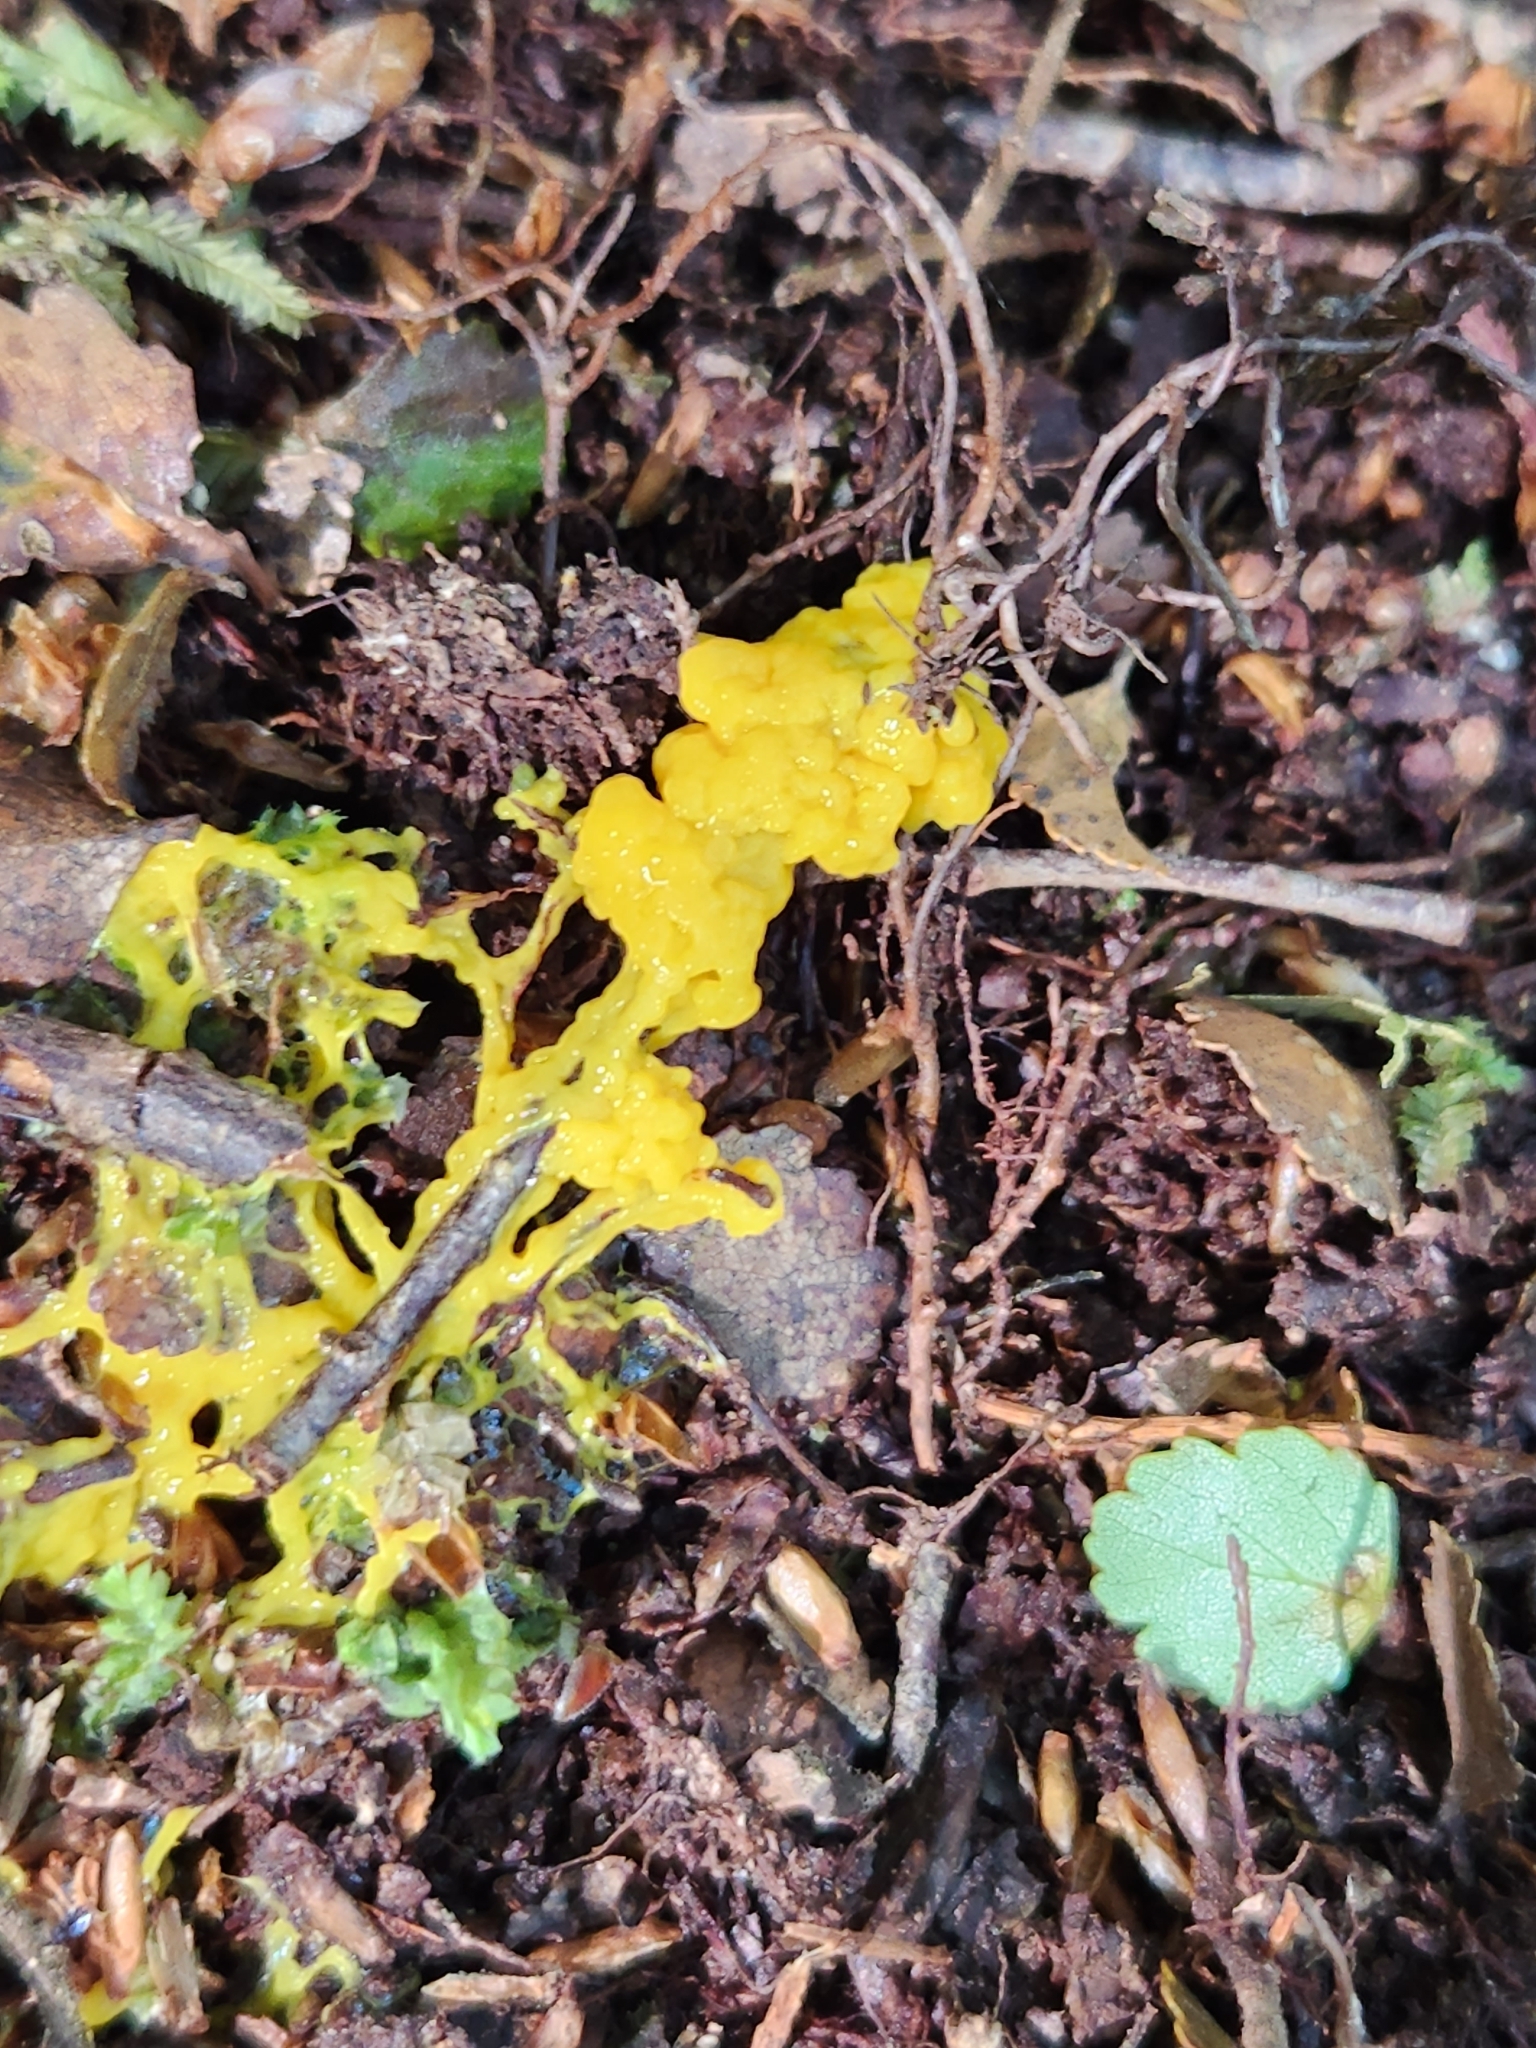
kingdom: Protozoa
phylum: Mycetozoa
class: Myxomycetes
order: Physarales
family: Physaraceae
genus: Fuligo
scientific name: Fuligo septica
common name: Dog vomit slime mold
